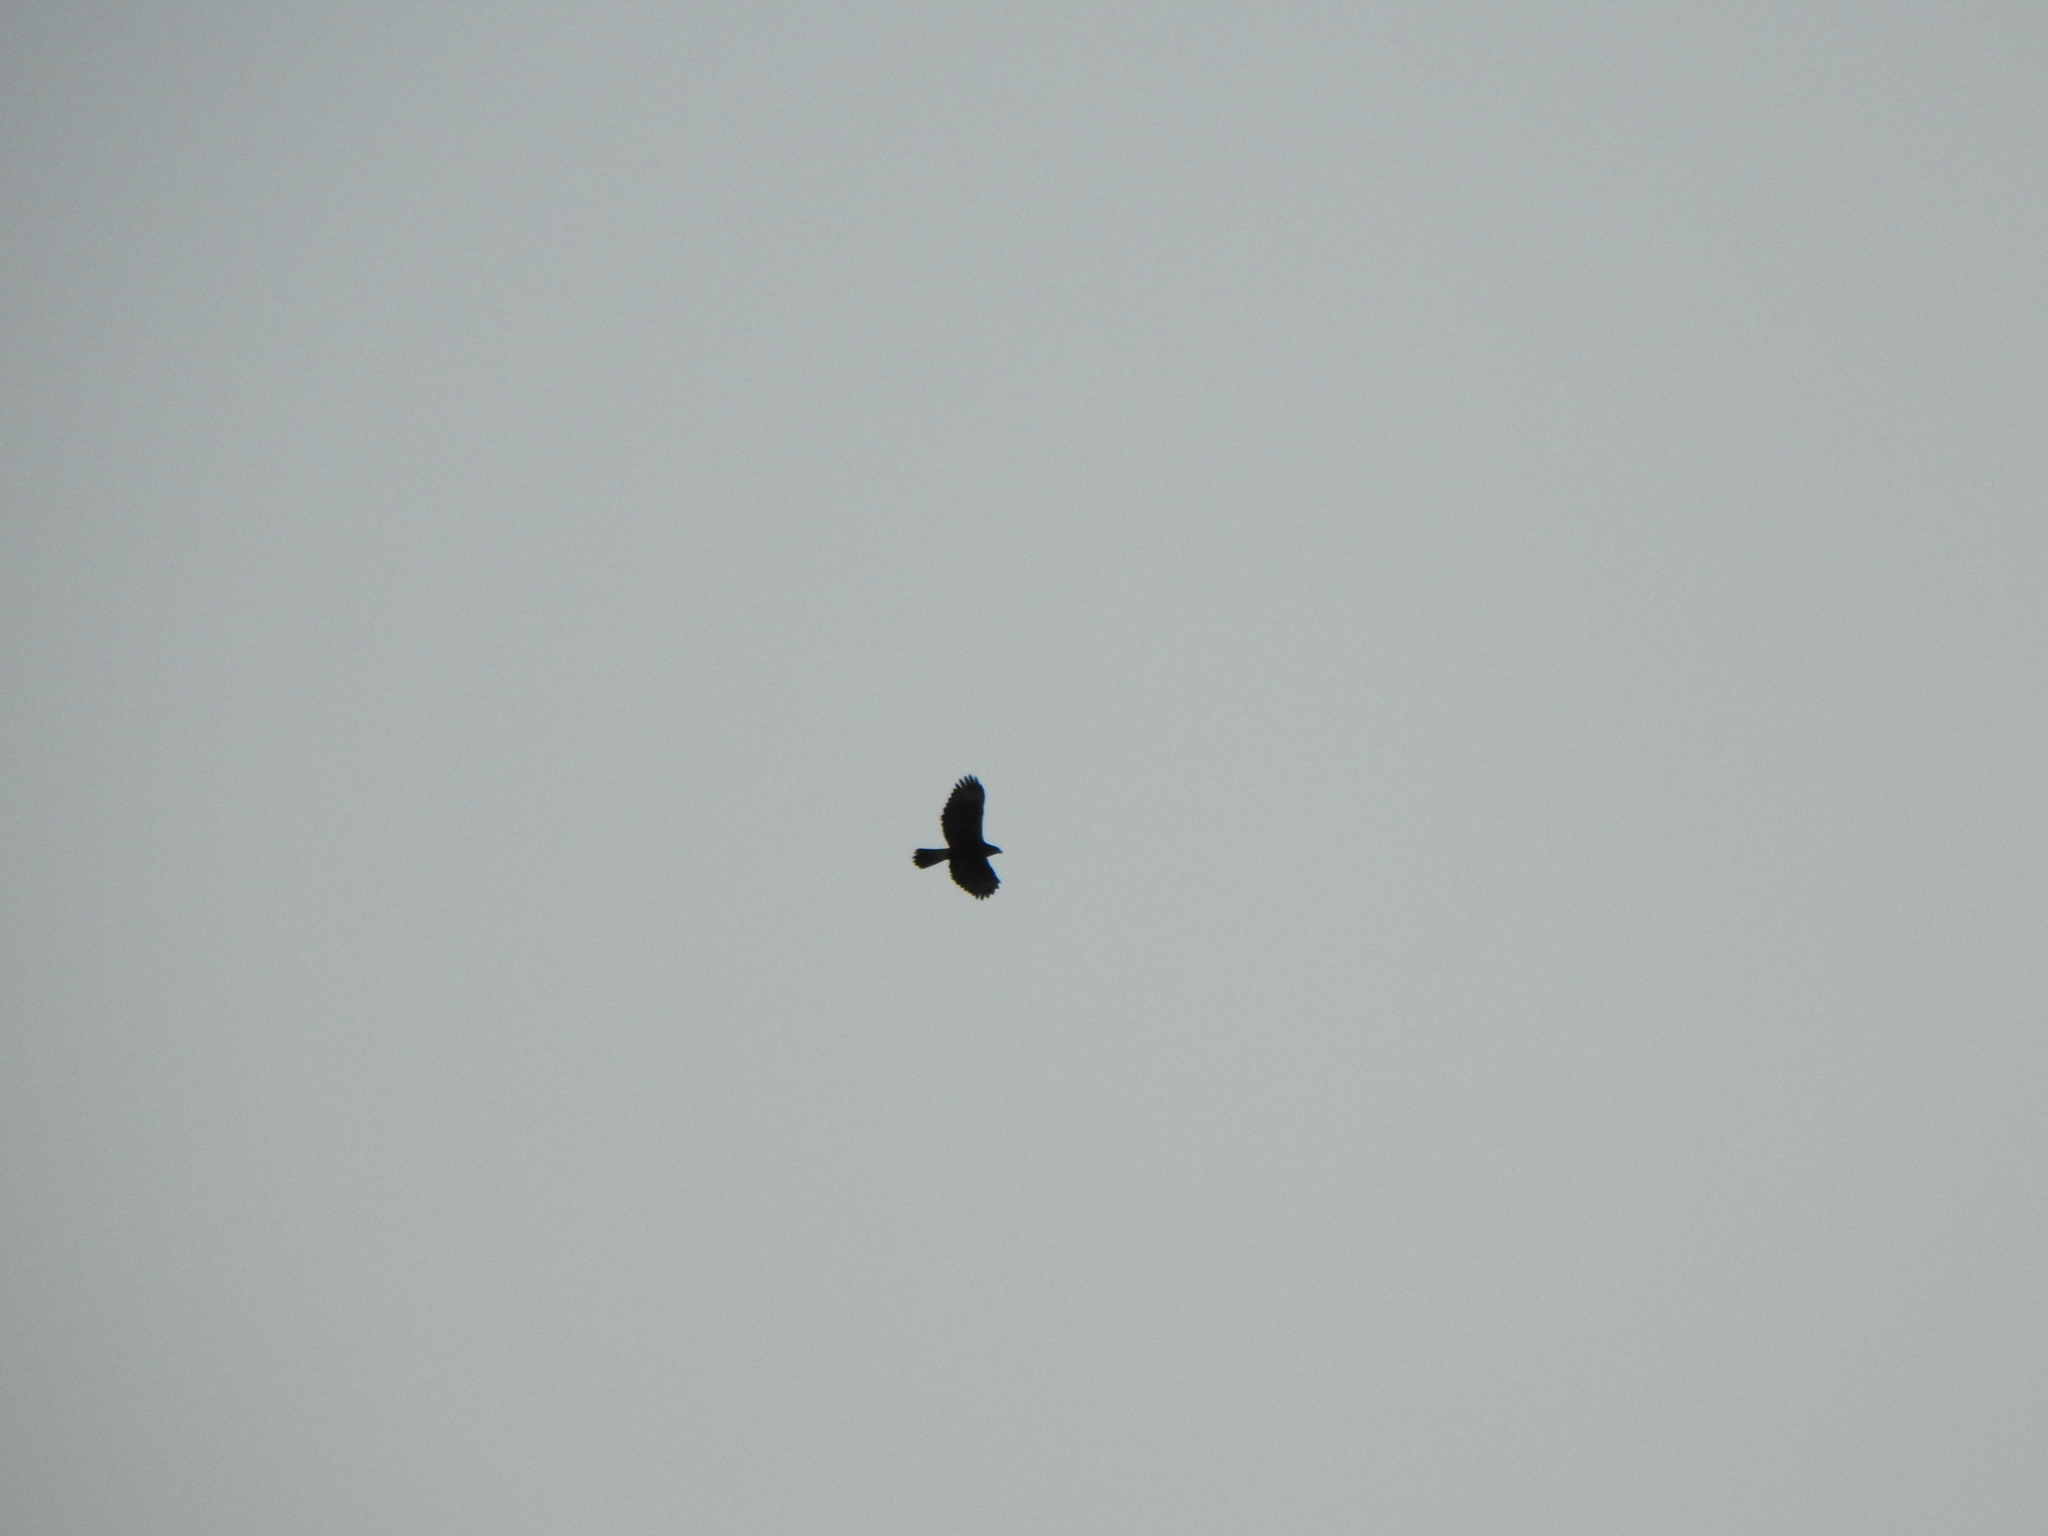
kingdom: Animalia
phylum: Chordata
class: Aves
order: Accipitriformes
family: Accipitridae
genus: Parabuteo
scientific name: Parabuteo unicinctus
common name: Harris's hawk
